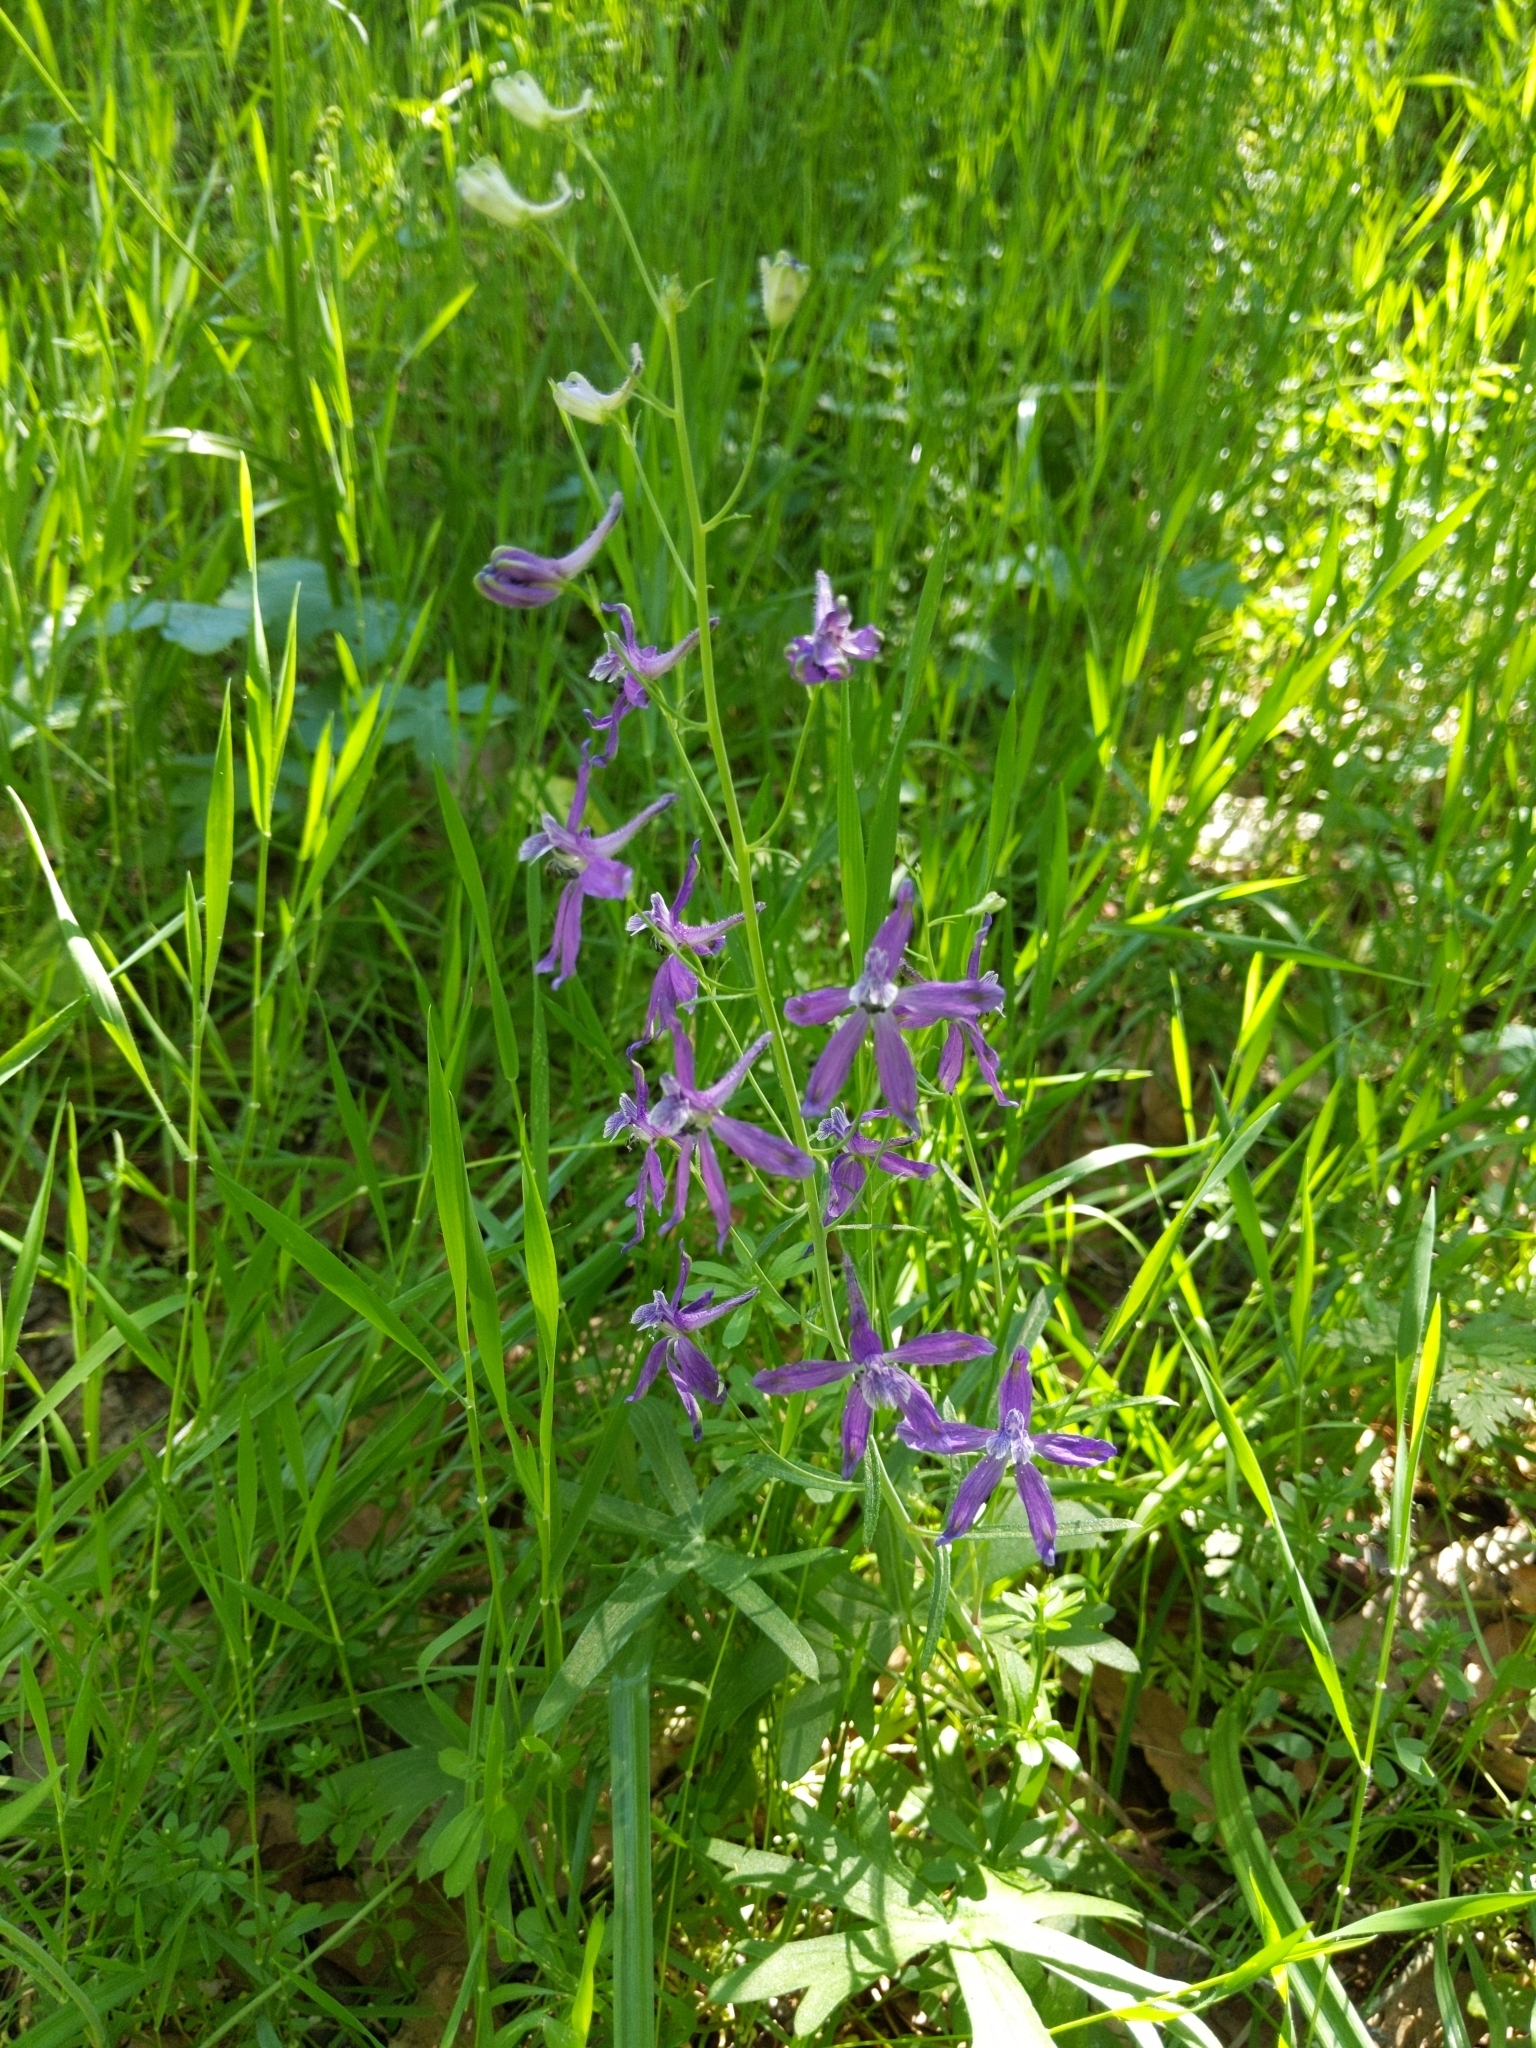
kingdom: Plantae
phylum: Tracheophyta
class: Magnoliopsida
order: Ranunculales
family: Ranunculaceae
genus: Delphinium
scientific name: Delphinium patens
